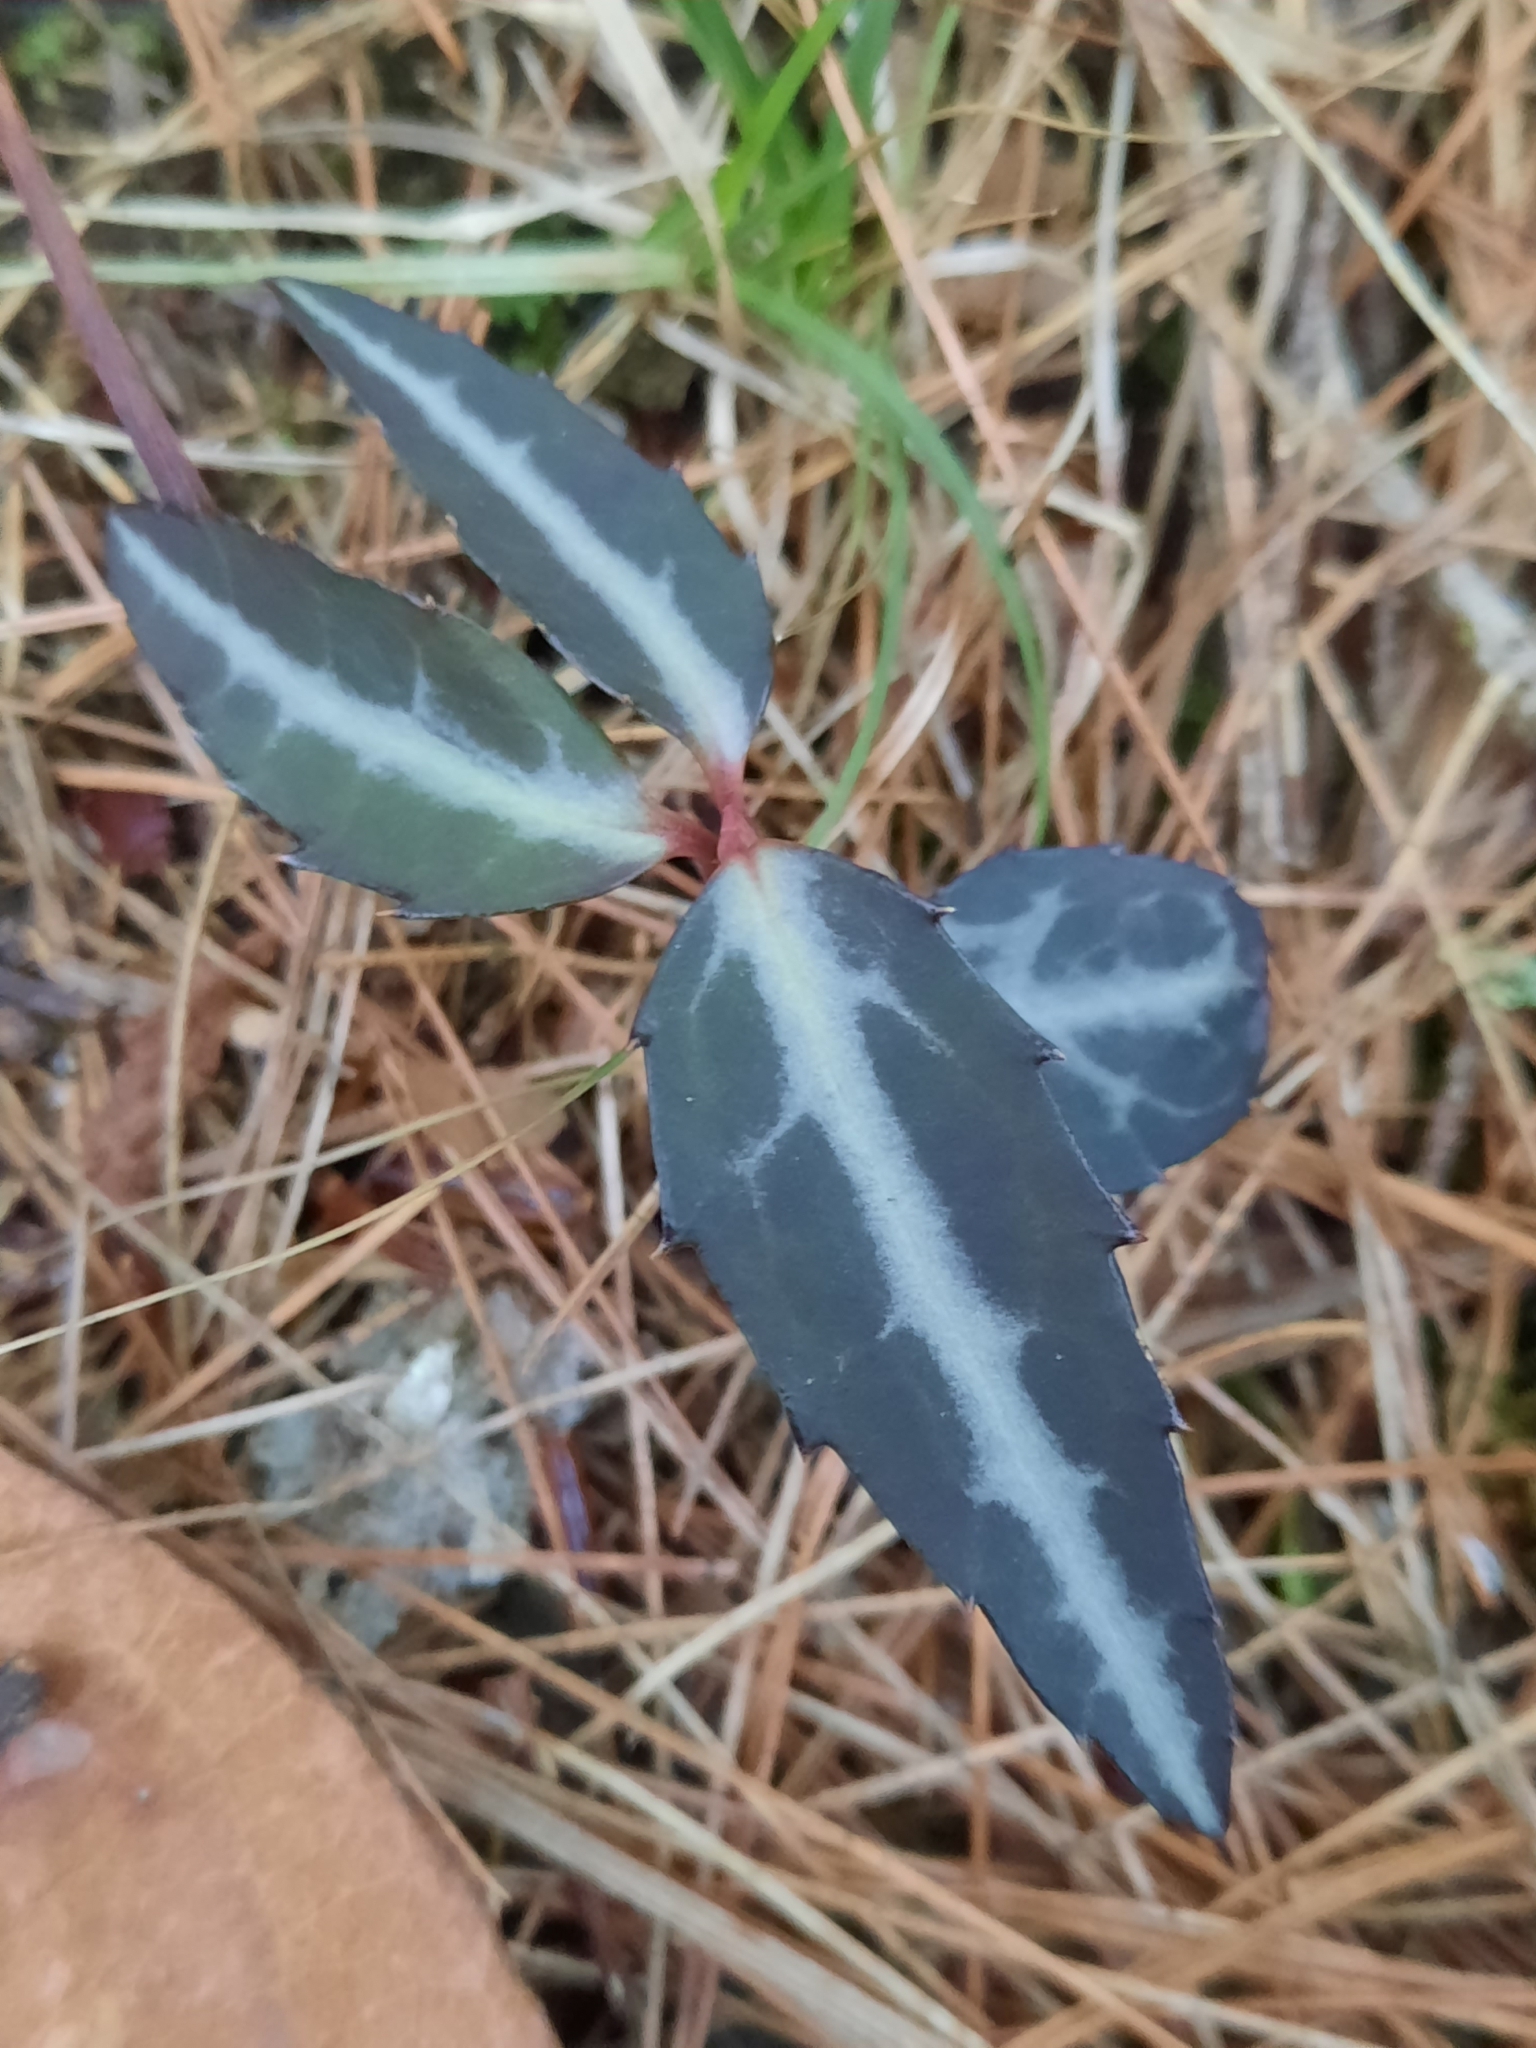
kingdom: Plantae
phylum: Tracheophyta
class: Magnoliopsida
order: Ericales
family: Ericaceae
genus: Chimaphila
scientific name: Chimaphila maculata
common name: Spotted pipsissewa
